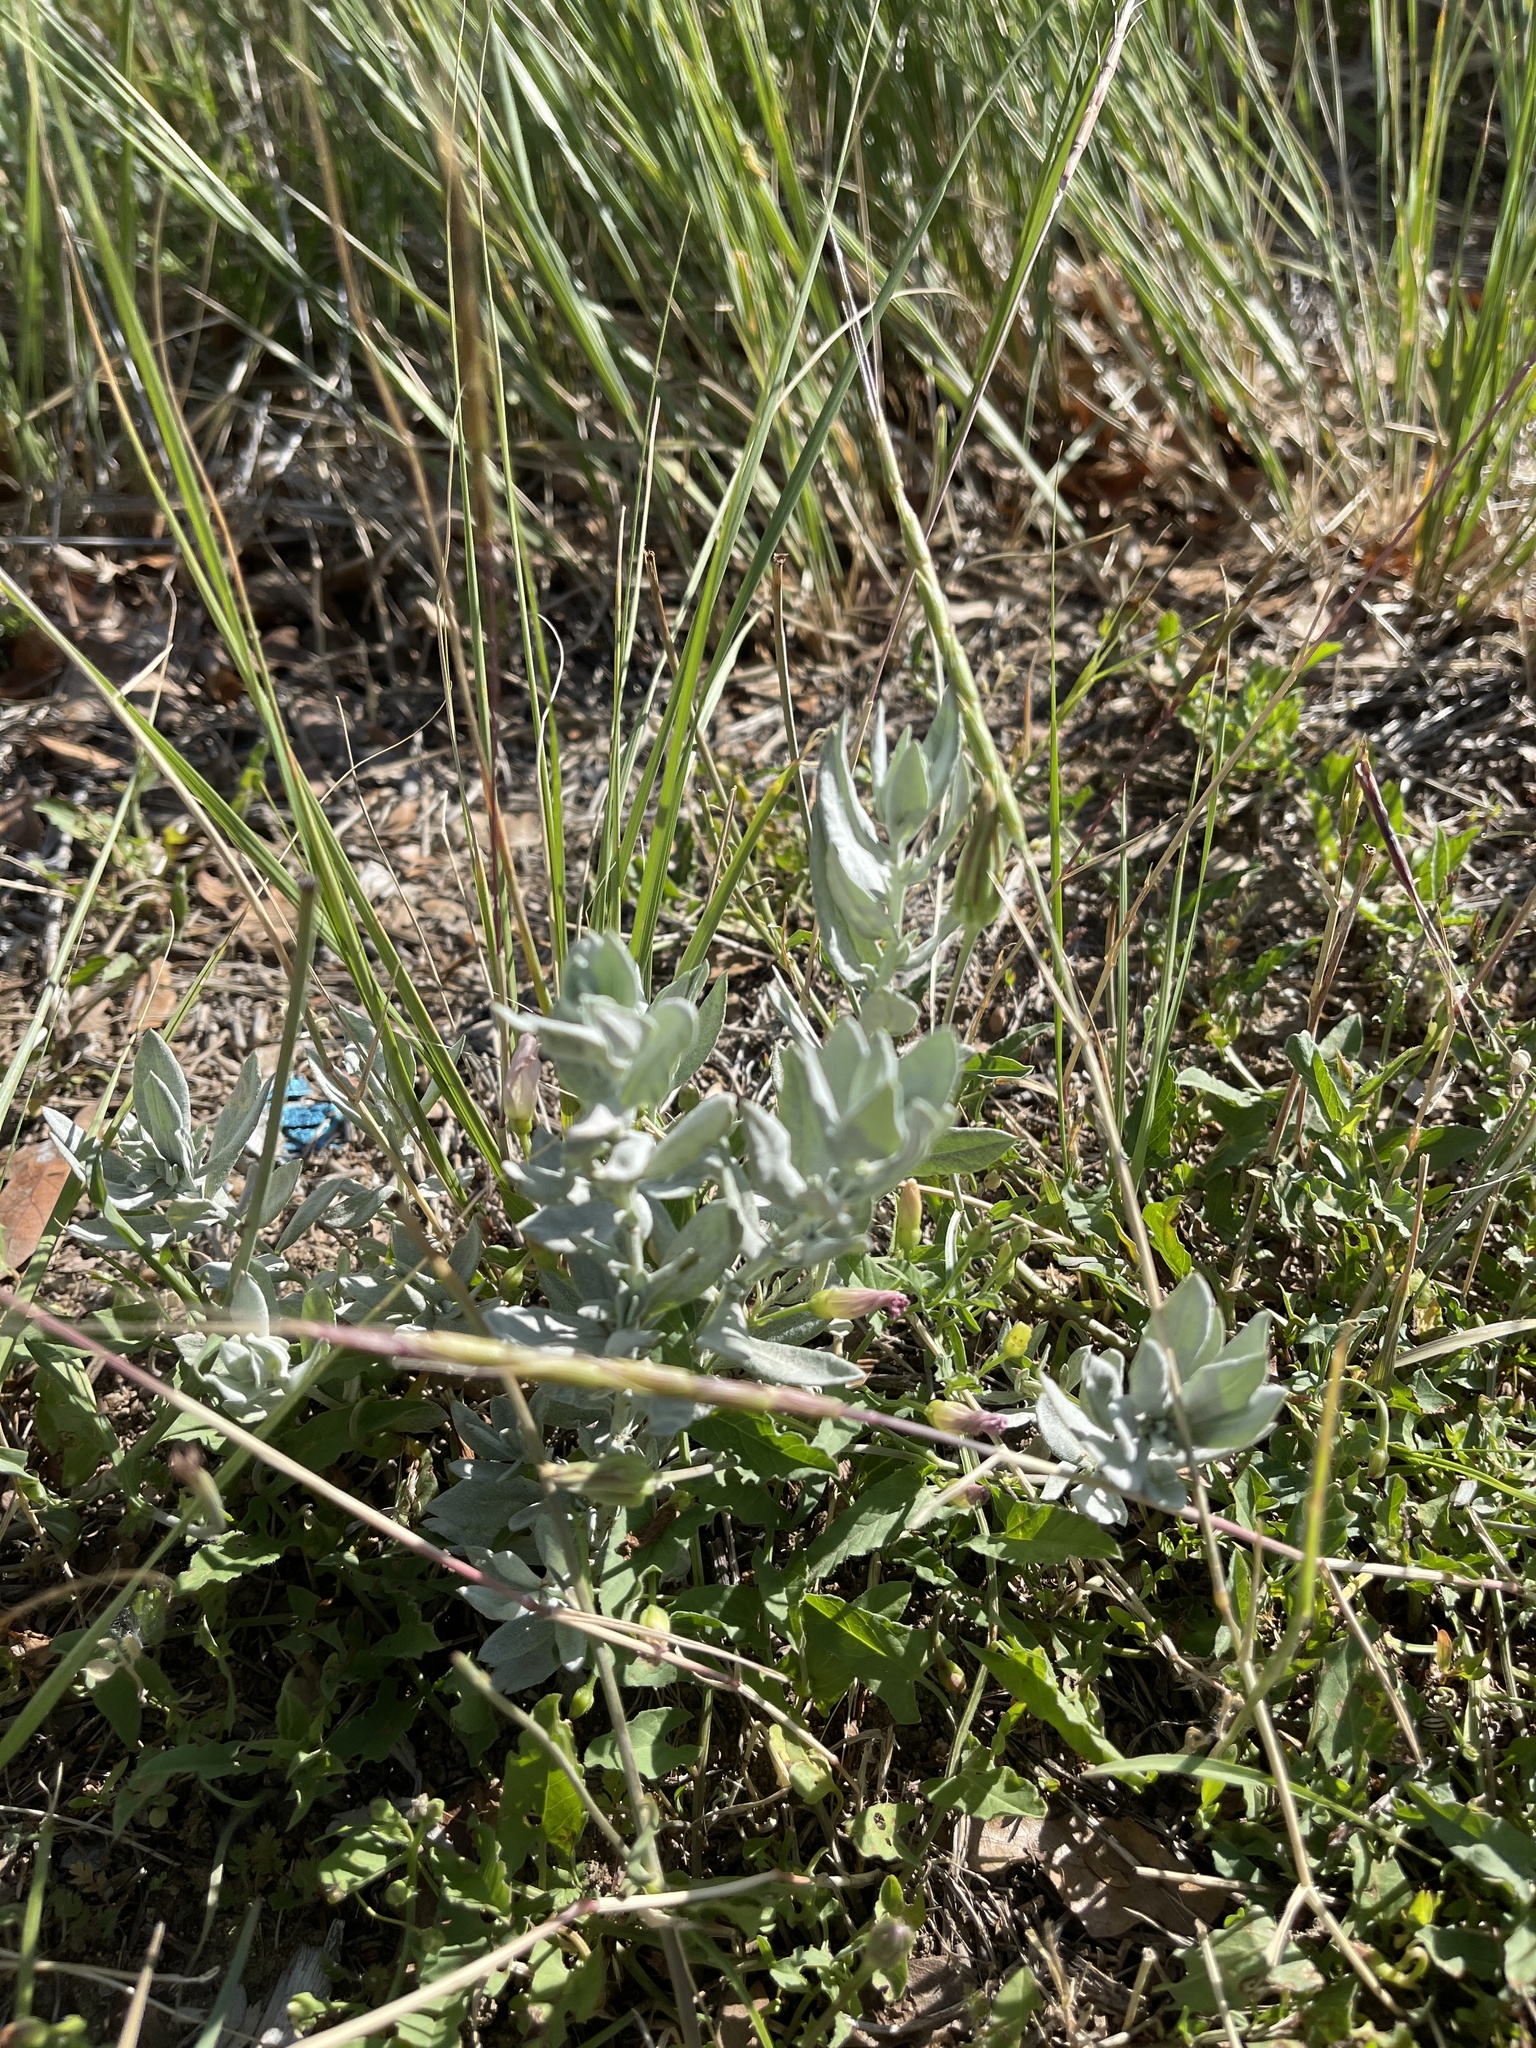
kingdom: Plantae
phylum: Tracheophyta
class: Magnoliopsida
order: Asterales
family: Asteraceae
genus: Artemisia
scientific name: Artemisia ludoviciana
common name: Western mugwort
